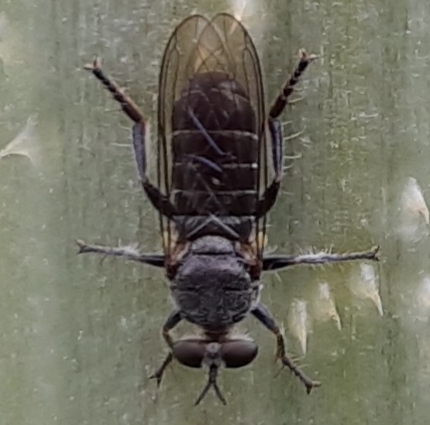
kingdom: Animalia
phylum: Arthropoda
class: Insecta
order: Diptera
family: Asilidae
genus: Atomosia
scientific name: Atomosia puella
